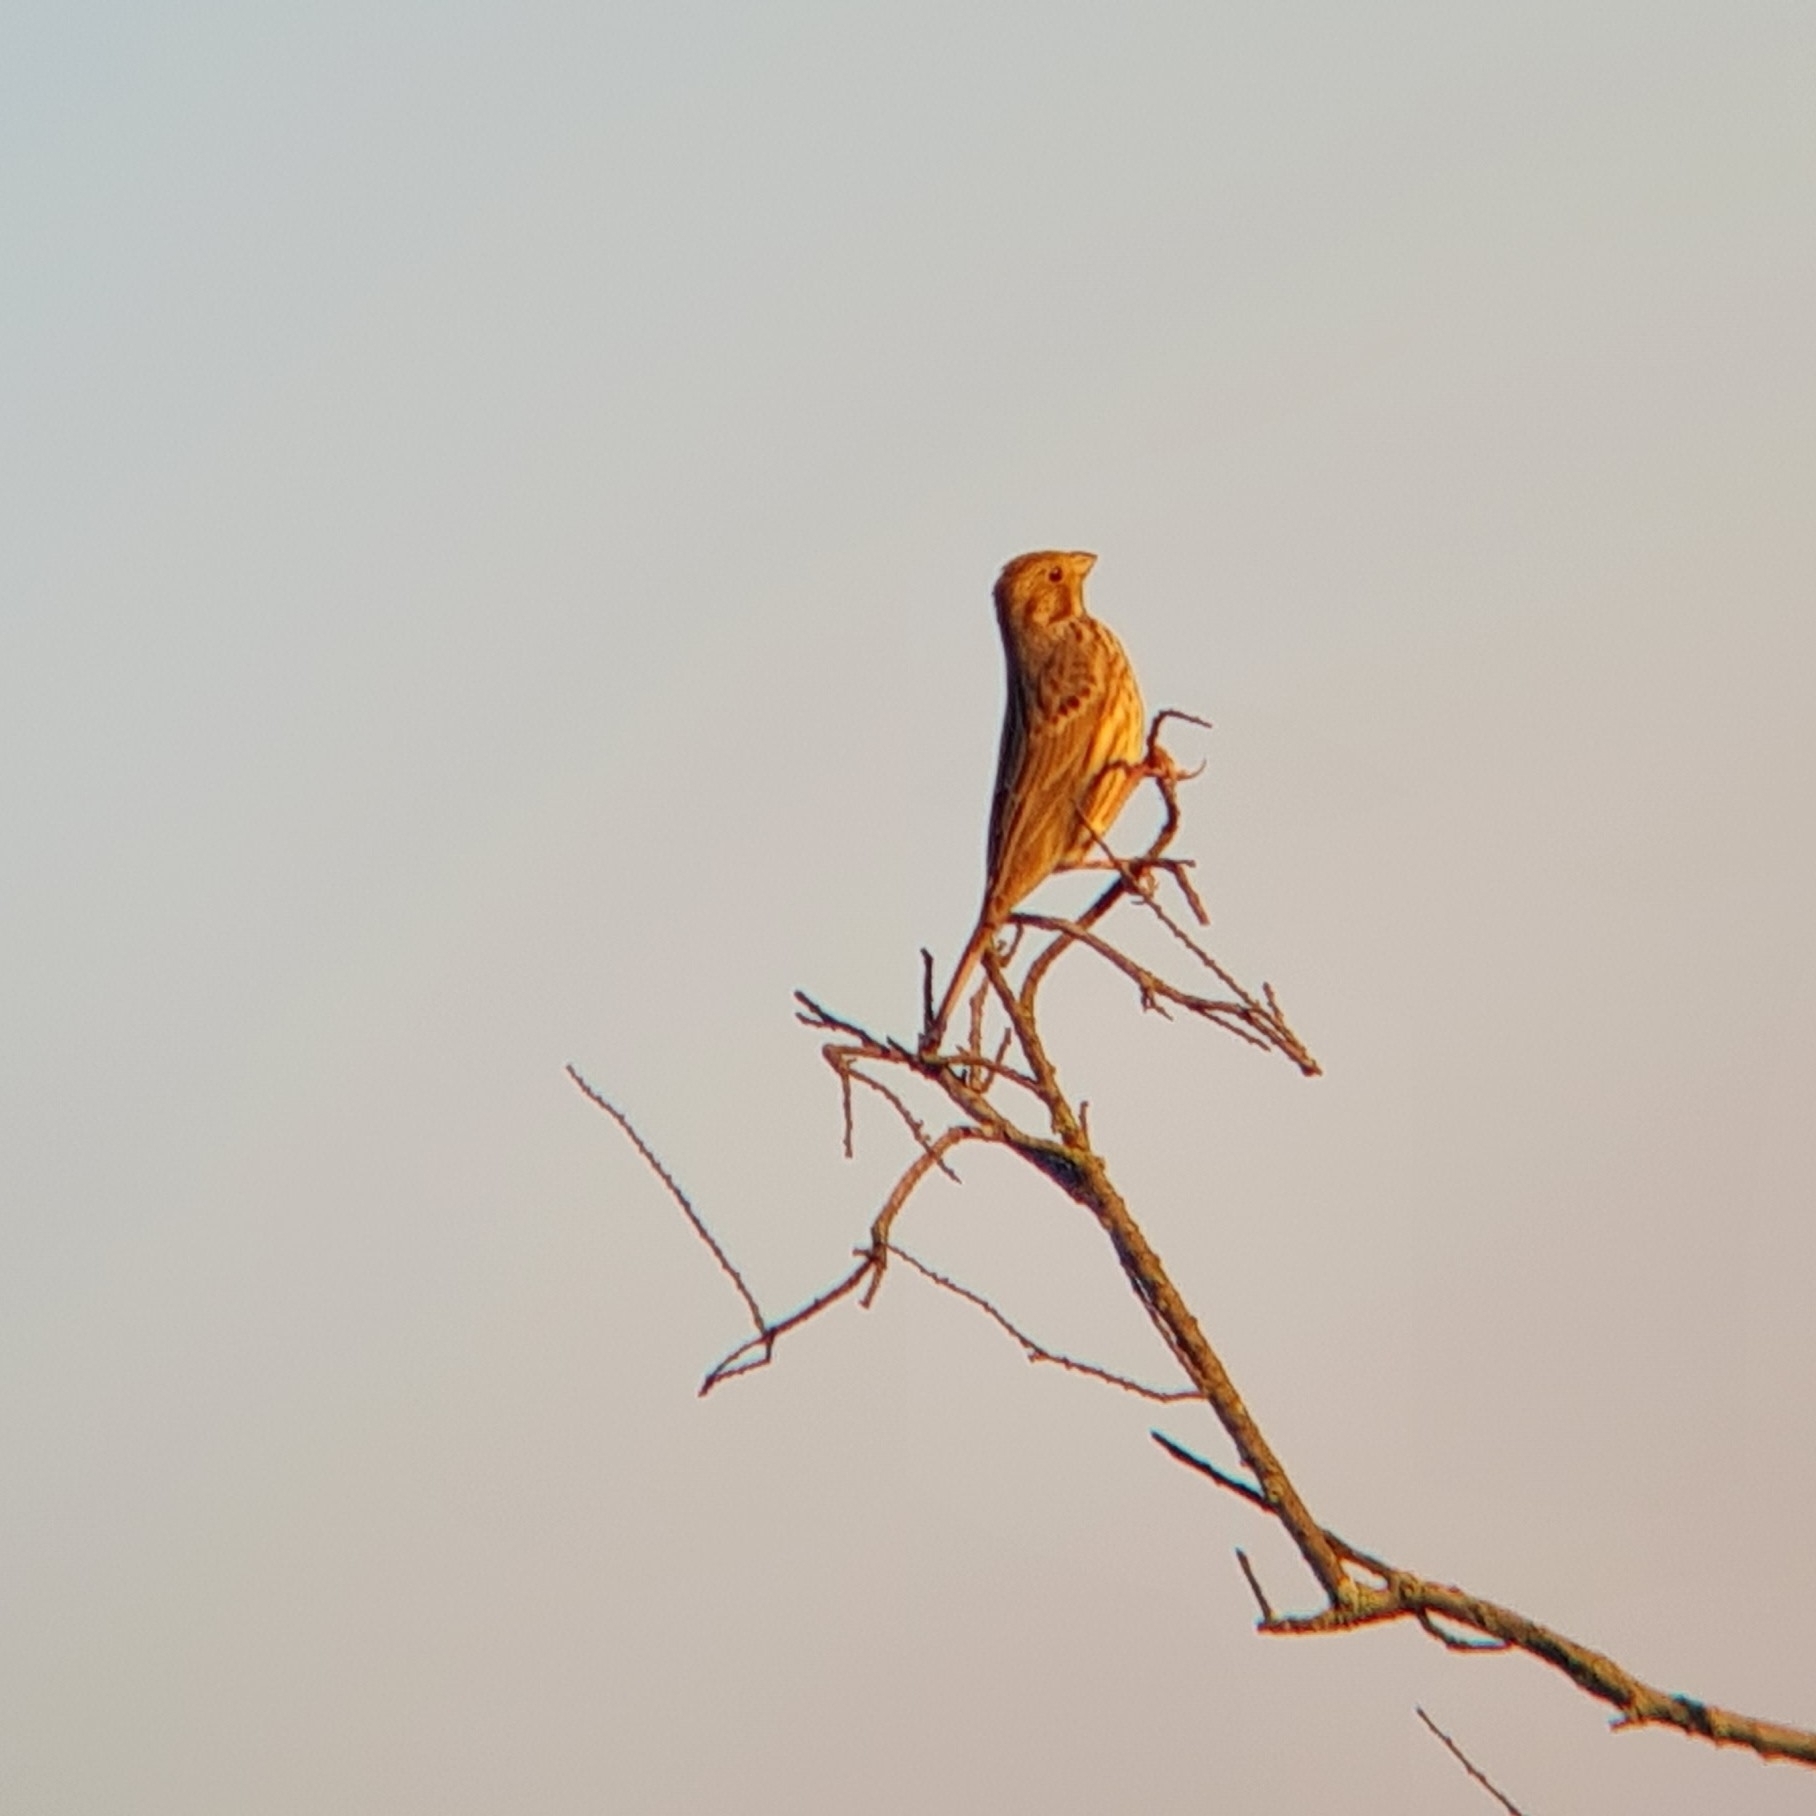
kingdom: Animalia
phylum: Chordata
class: Aves
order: Passeriformes
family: Emberizidae
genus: Emberiza
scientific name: Emberiza calandra
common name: Corn bunting
